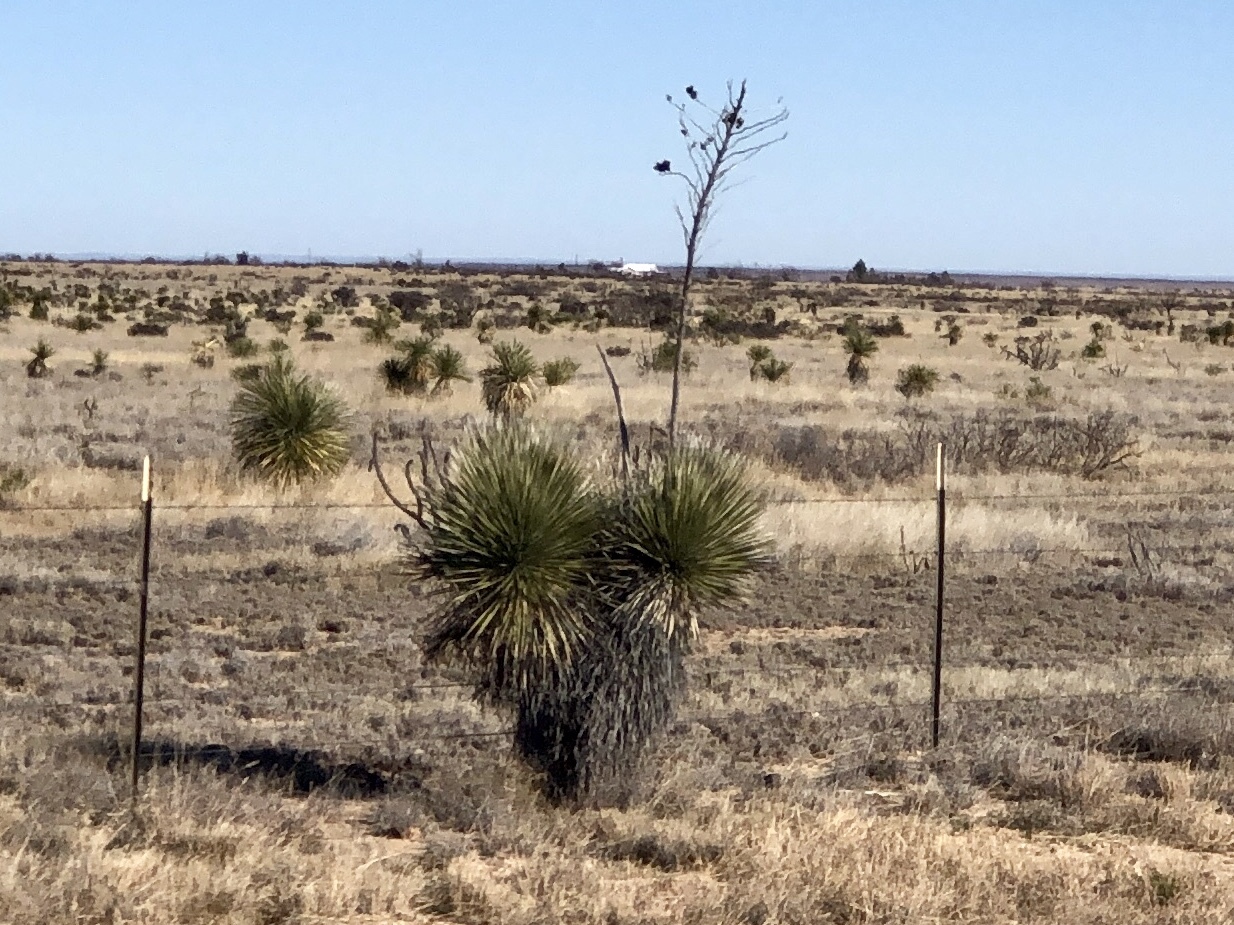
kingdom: Plantae
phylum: Tracheophyta
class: Liliopsida
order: Asparagales
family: Asparagaceae
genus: Yucca
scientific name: Yucca elata
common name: Palmella
